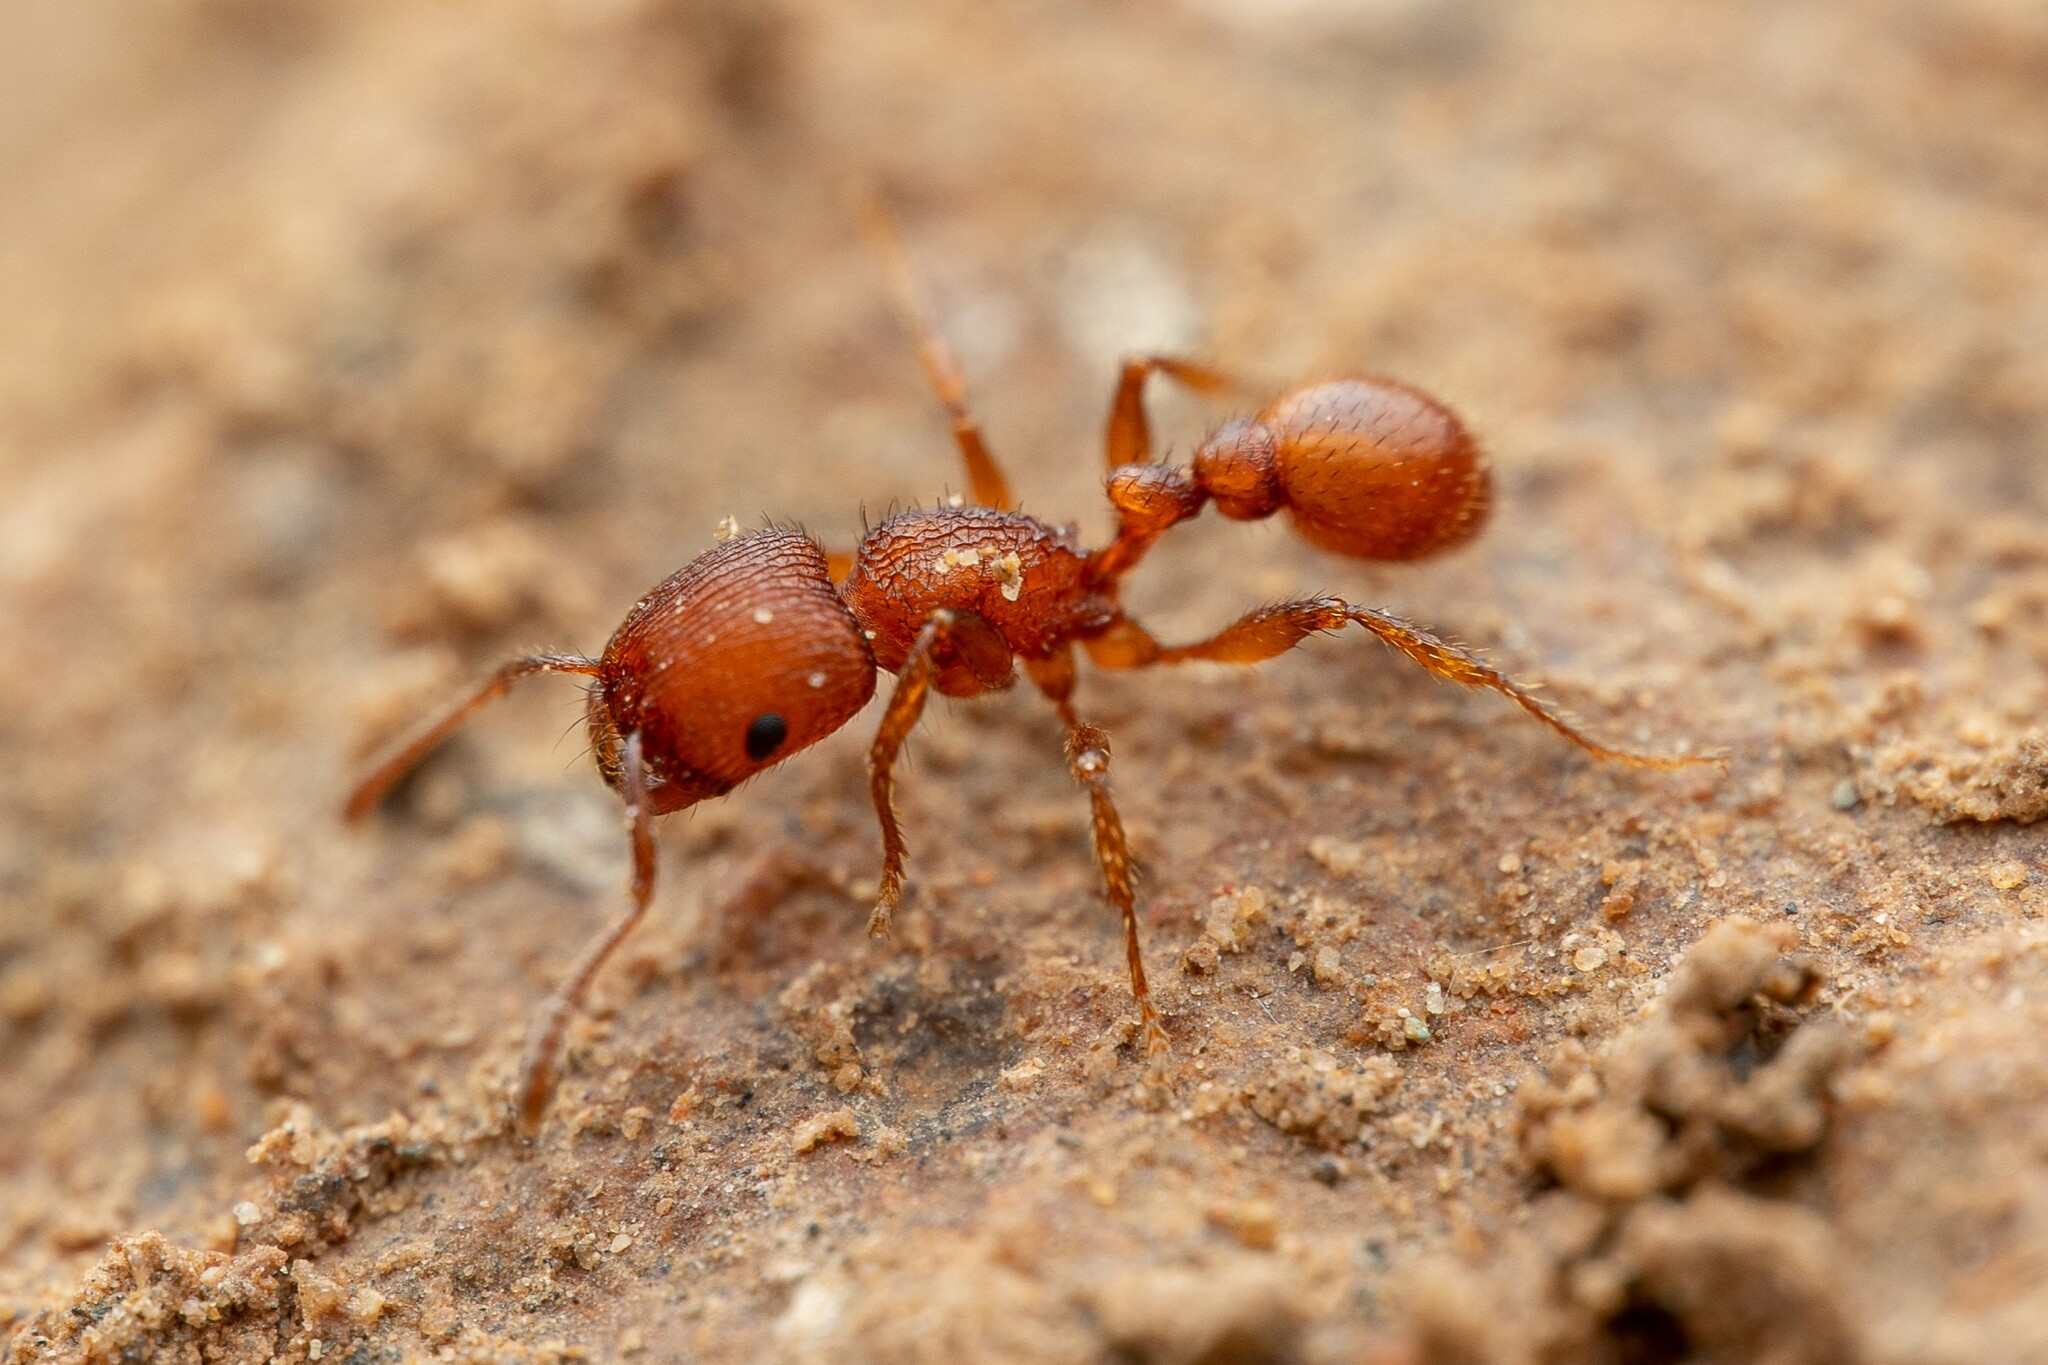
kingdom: Animalia
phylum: Arthropoda
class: Insecta
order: Hymenoptera
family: Formicidae
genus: Pogonomyrmex
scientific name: Pogonomyrmex pima
